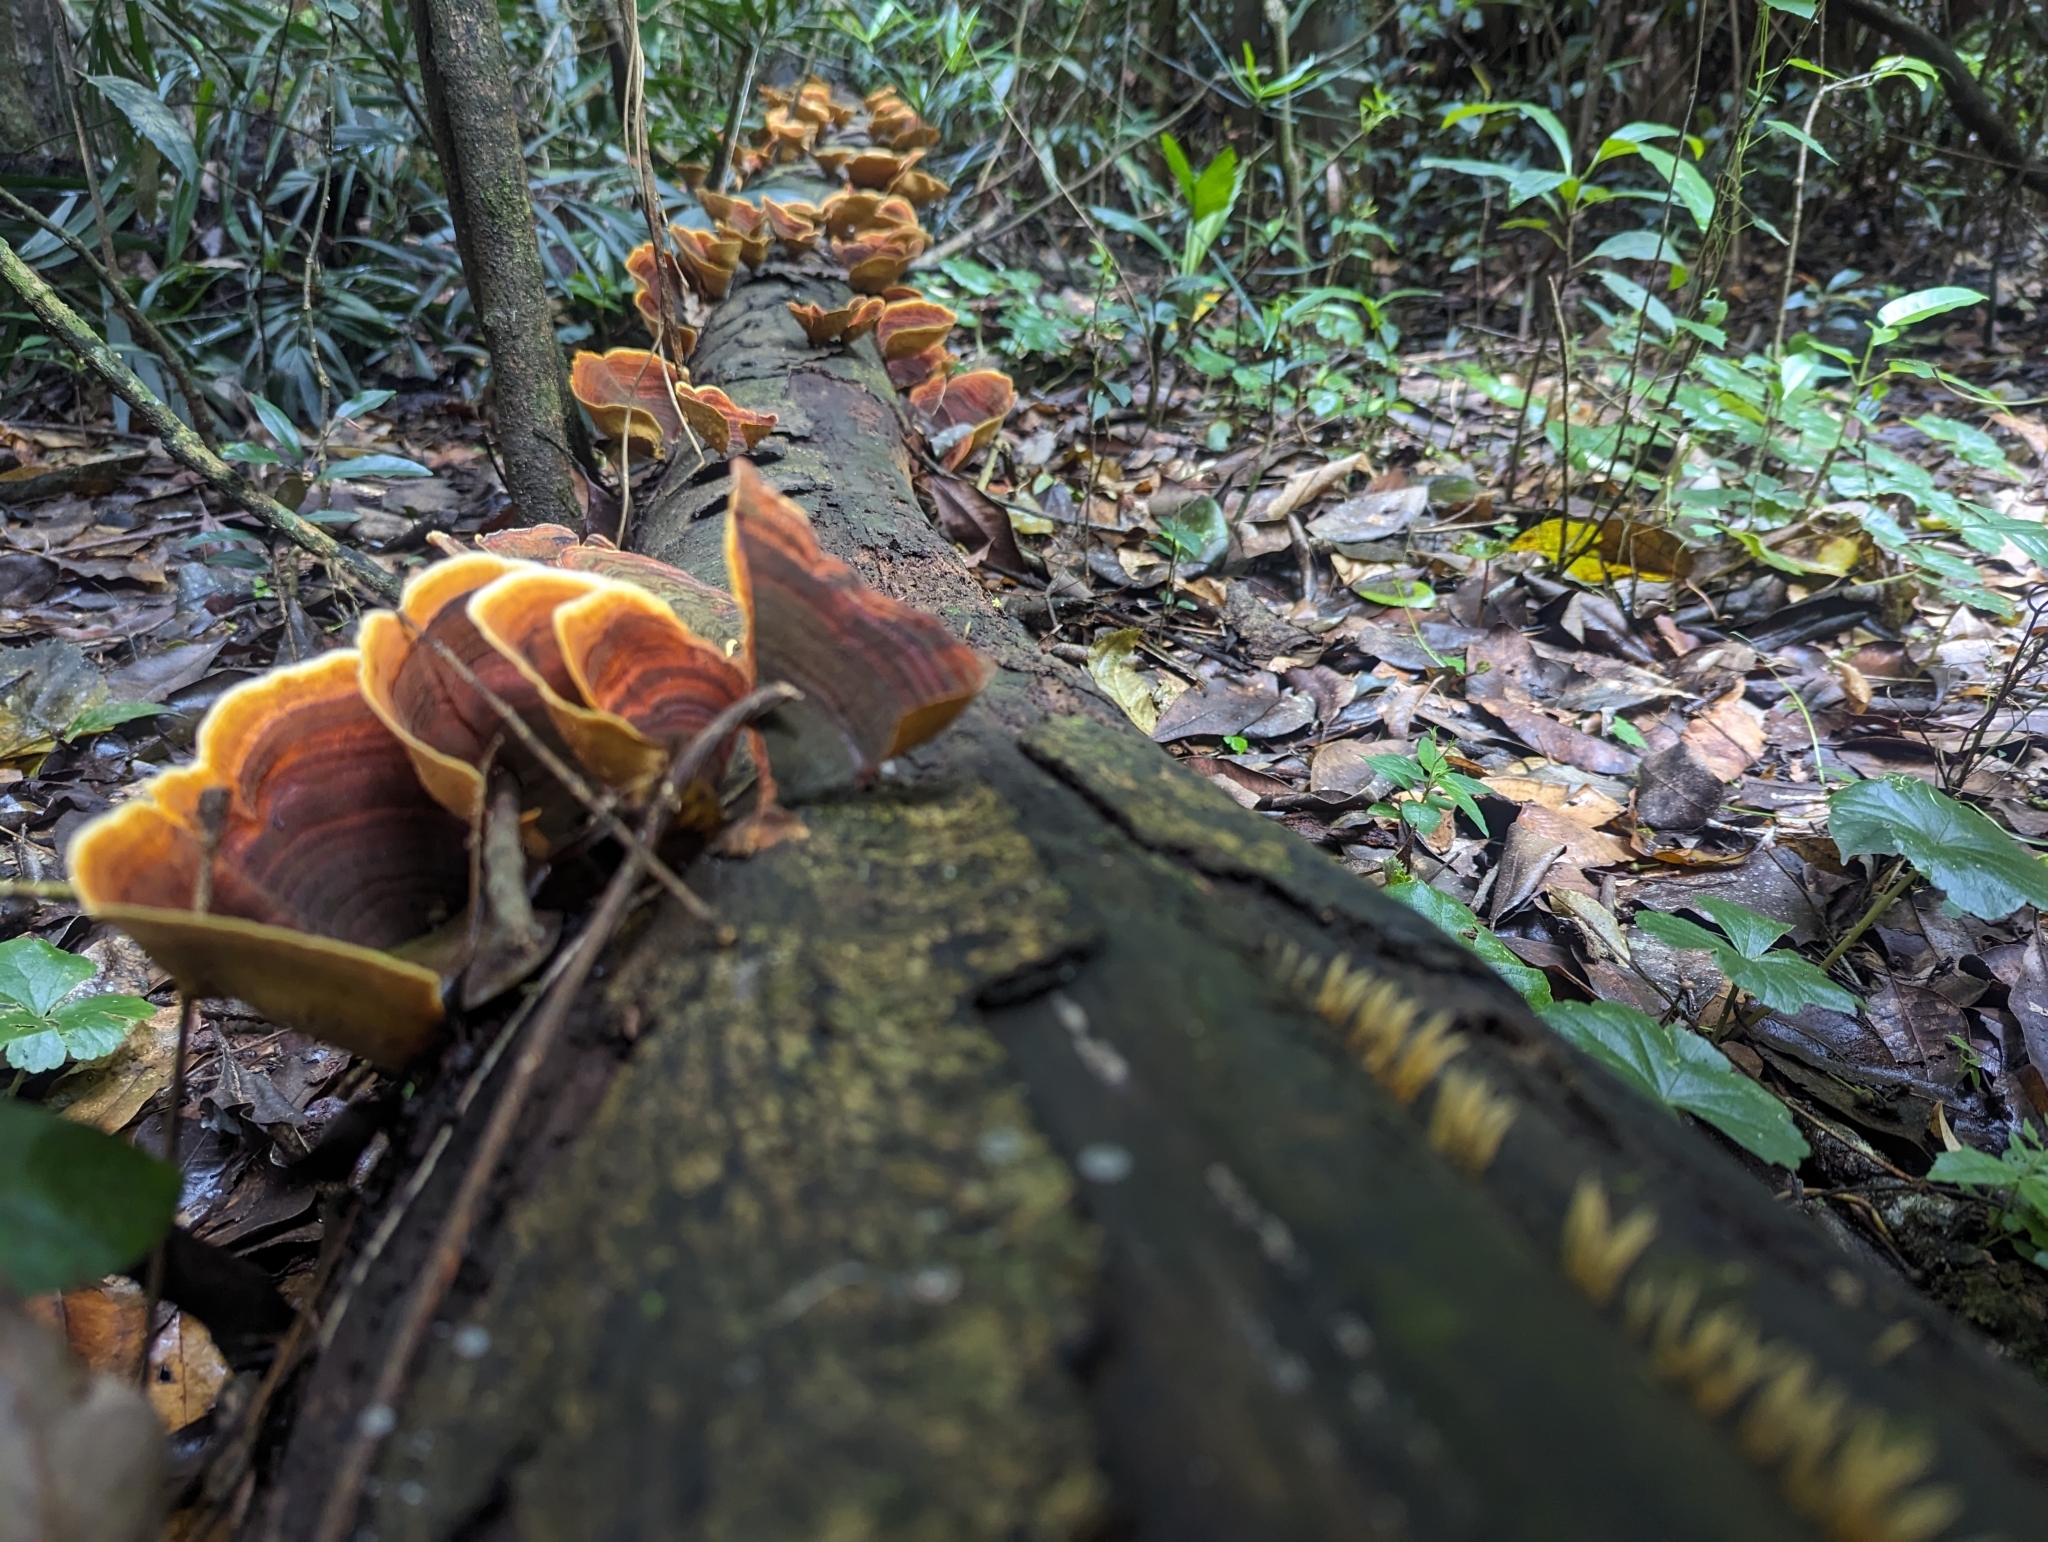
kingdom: Fungi
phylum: Basidiomycota
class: Agaricomycetes
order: Russulales
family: Stereaceae
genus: Stereum
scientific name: Stereum ostrea
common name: False turkeytail
